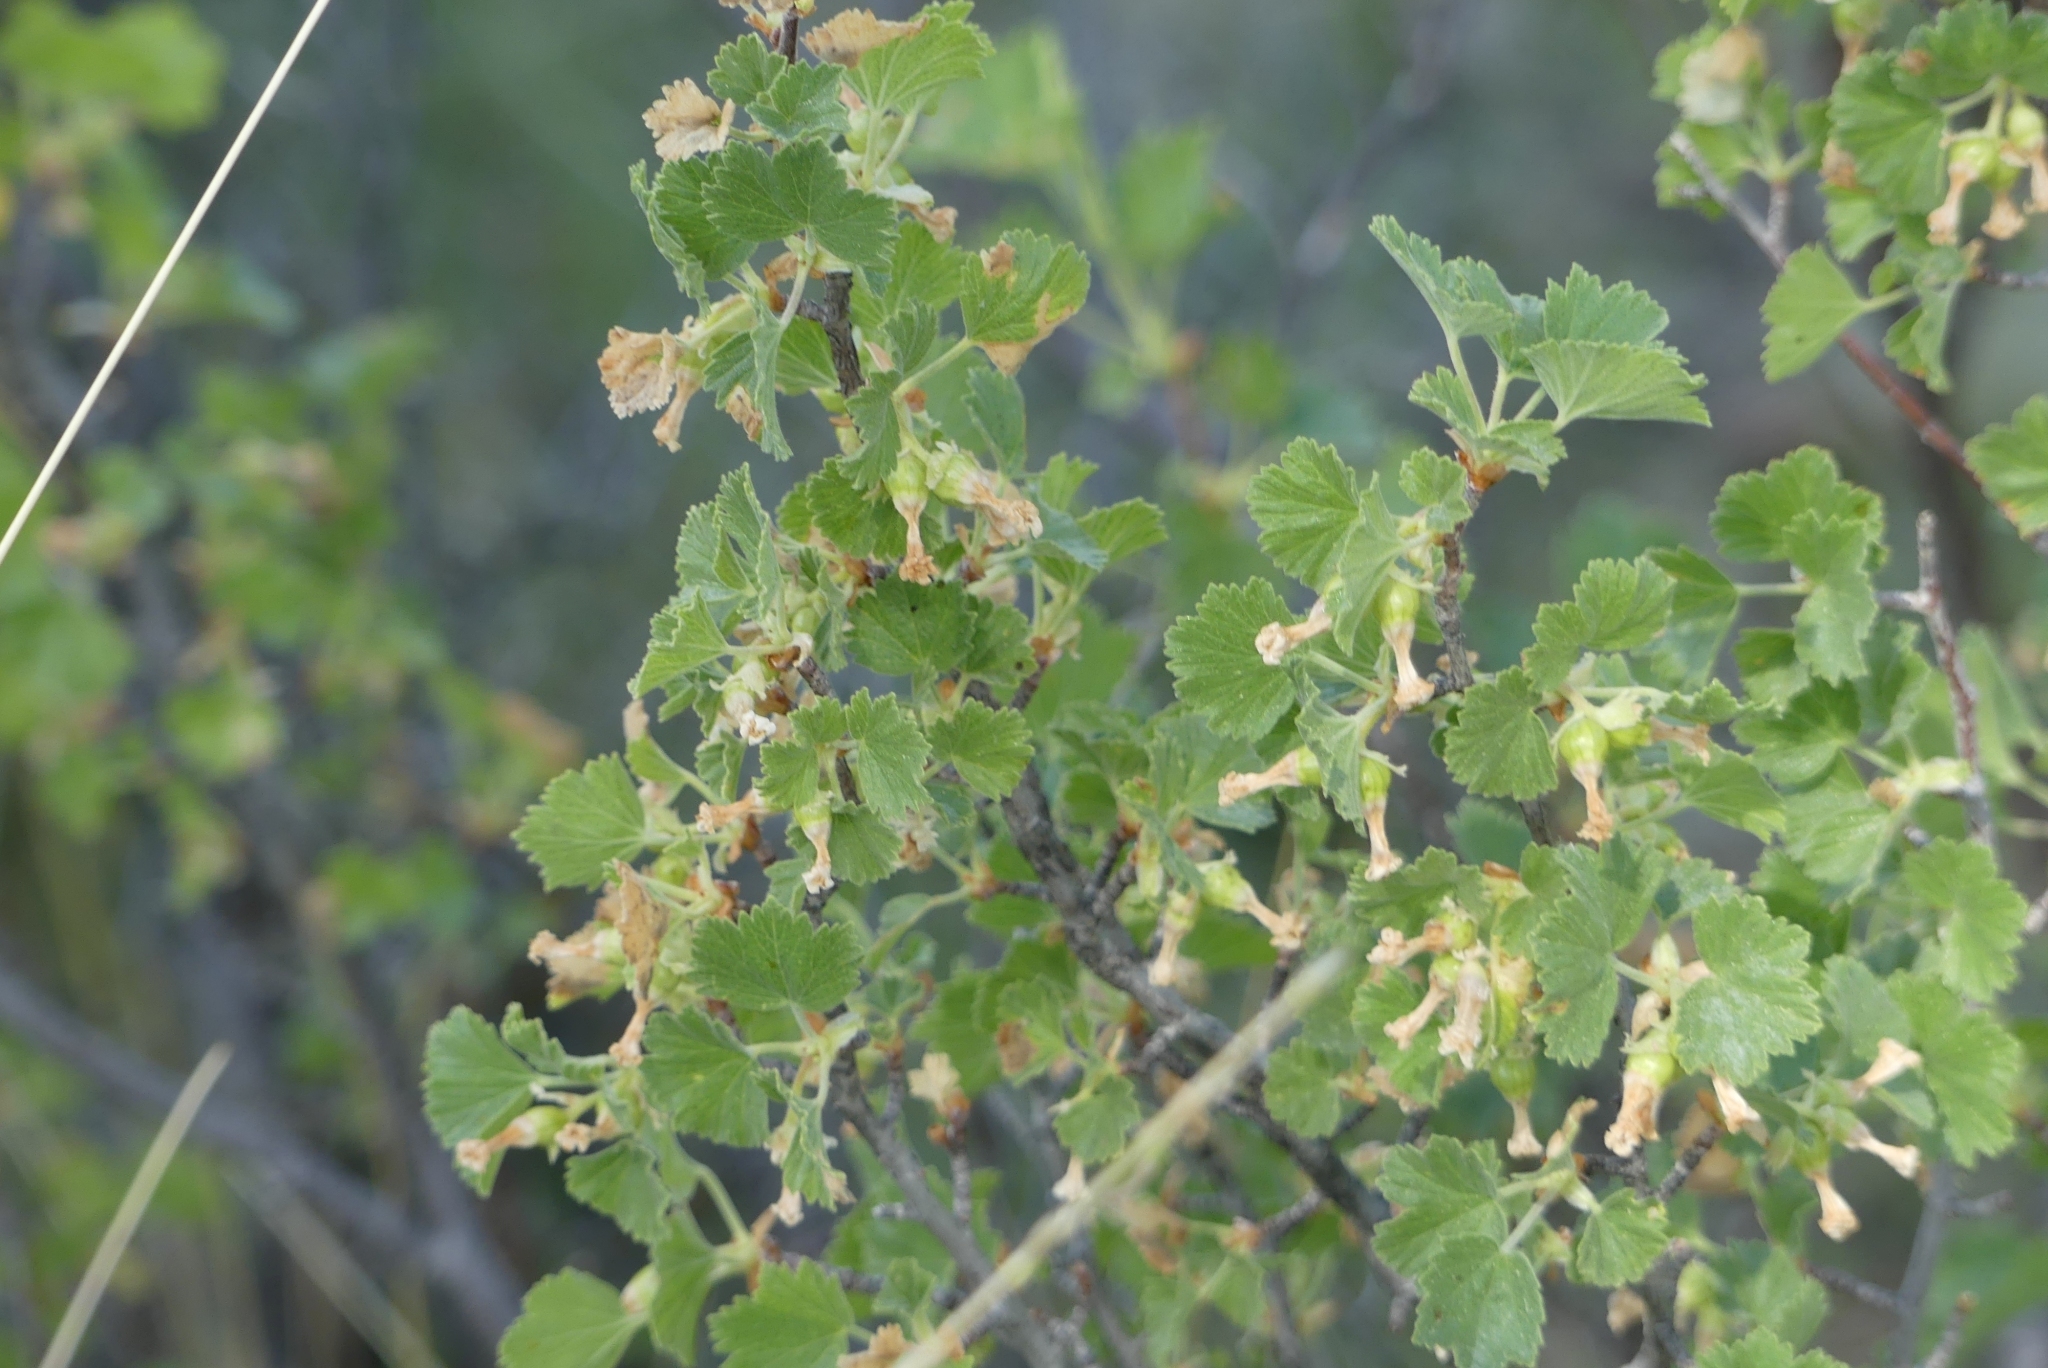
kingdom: Plantae
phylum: Tracheophyta
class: Magnoliopsida
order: Saxifragales
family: Grossulariaceae
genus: Ribes
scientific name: Ribes cereum
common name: Wax currant
